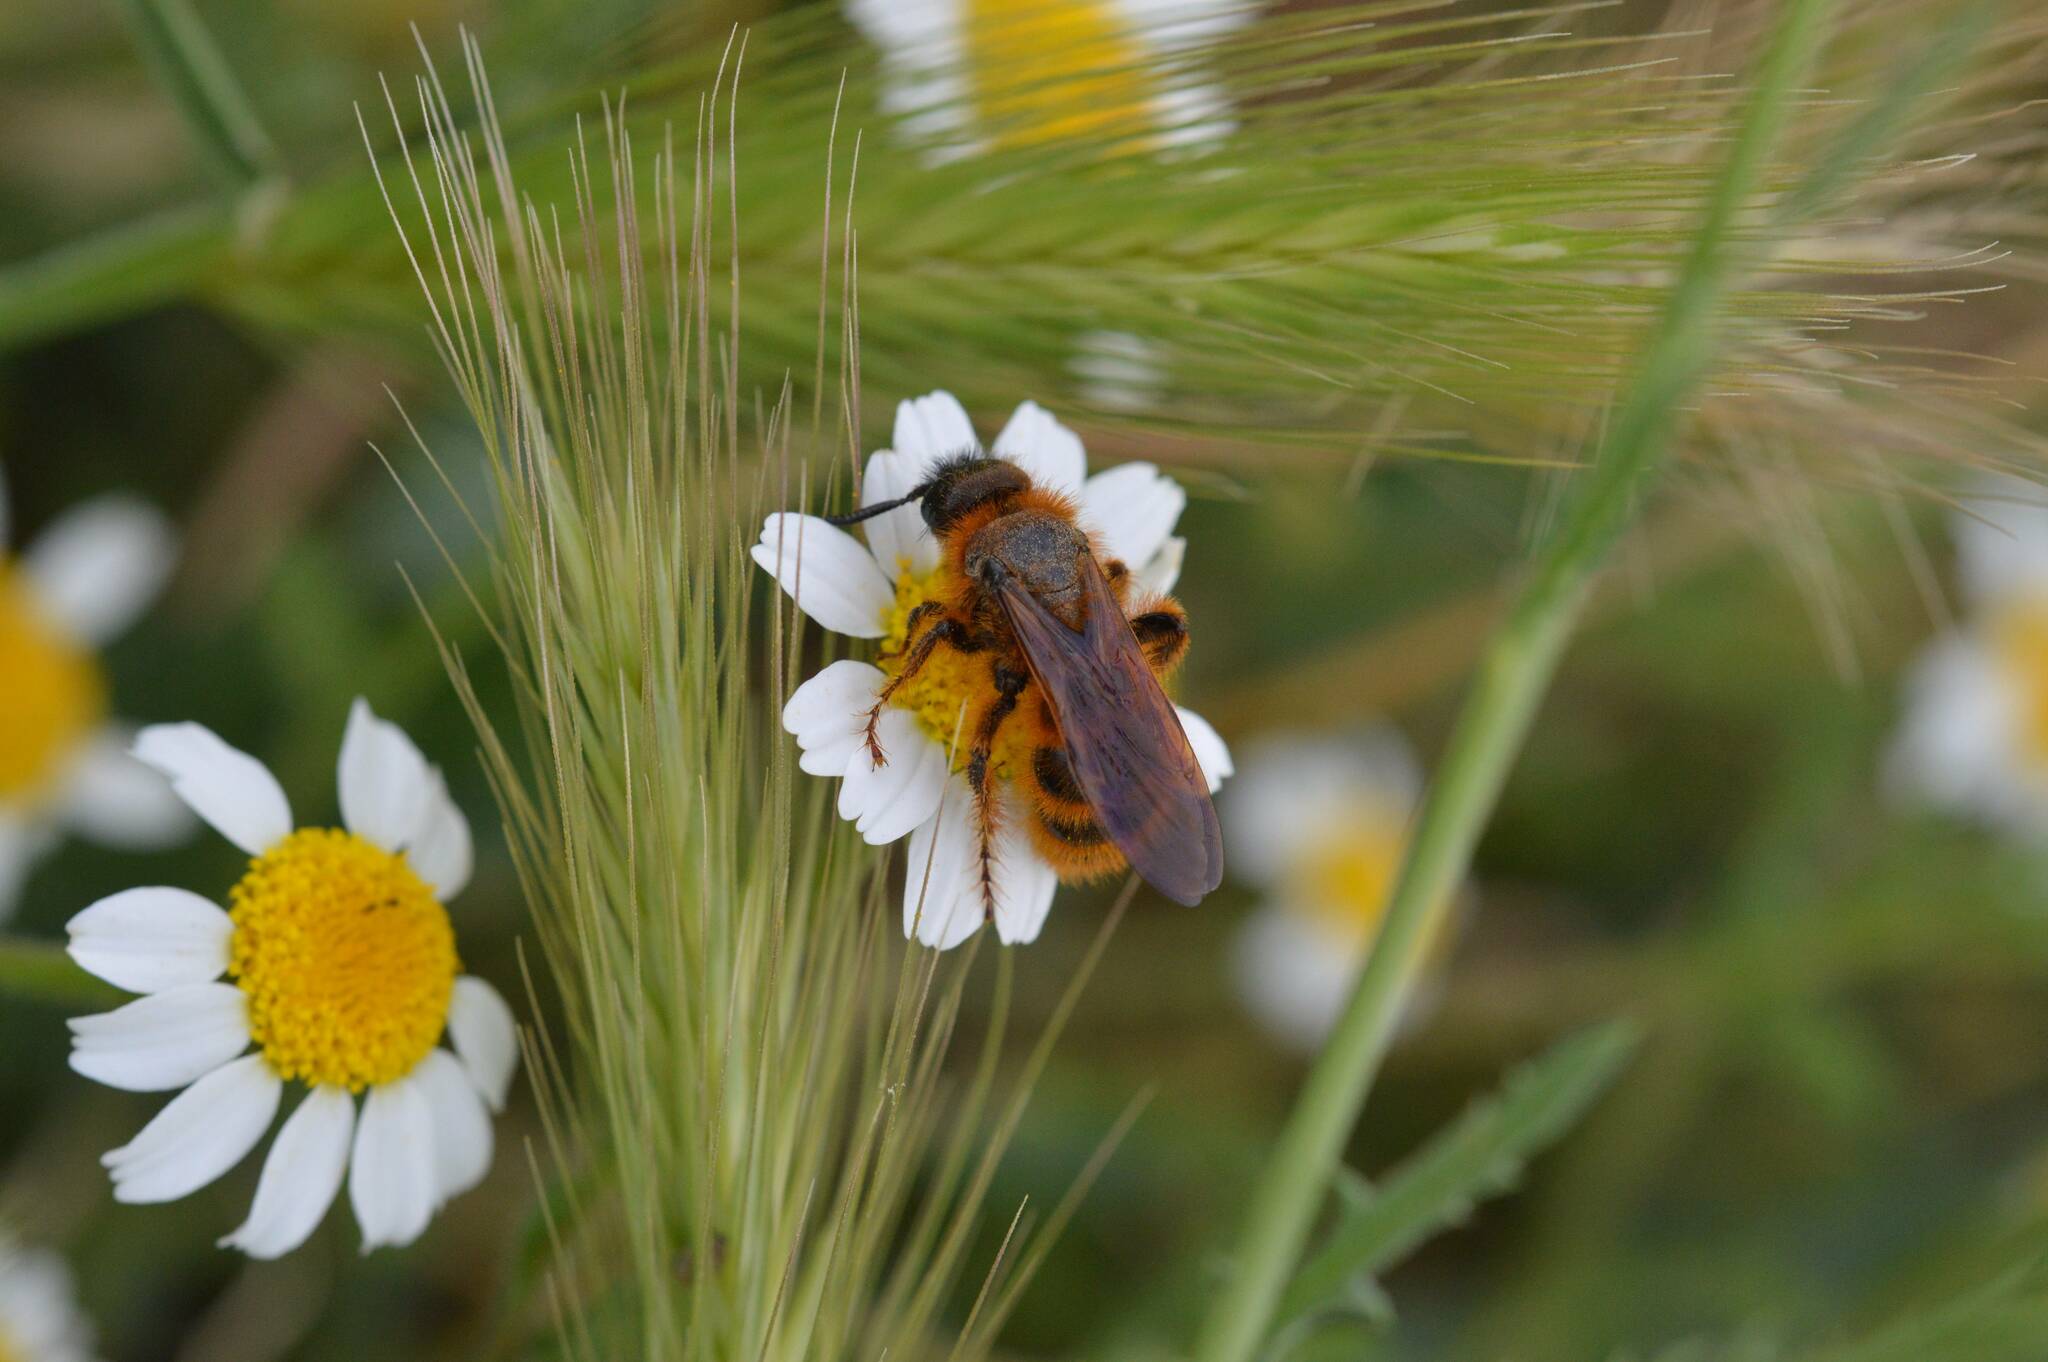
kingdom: Animalia
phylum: Arthropoda
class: Insecta
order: Hymenoptera
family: Scoliidae
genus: Dasyscolia
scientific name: Dasyscolia ciliata
